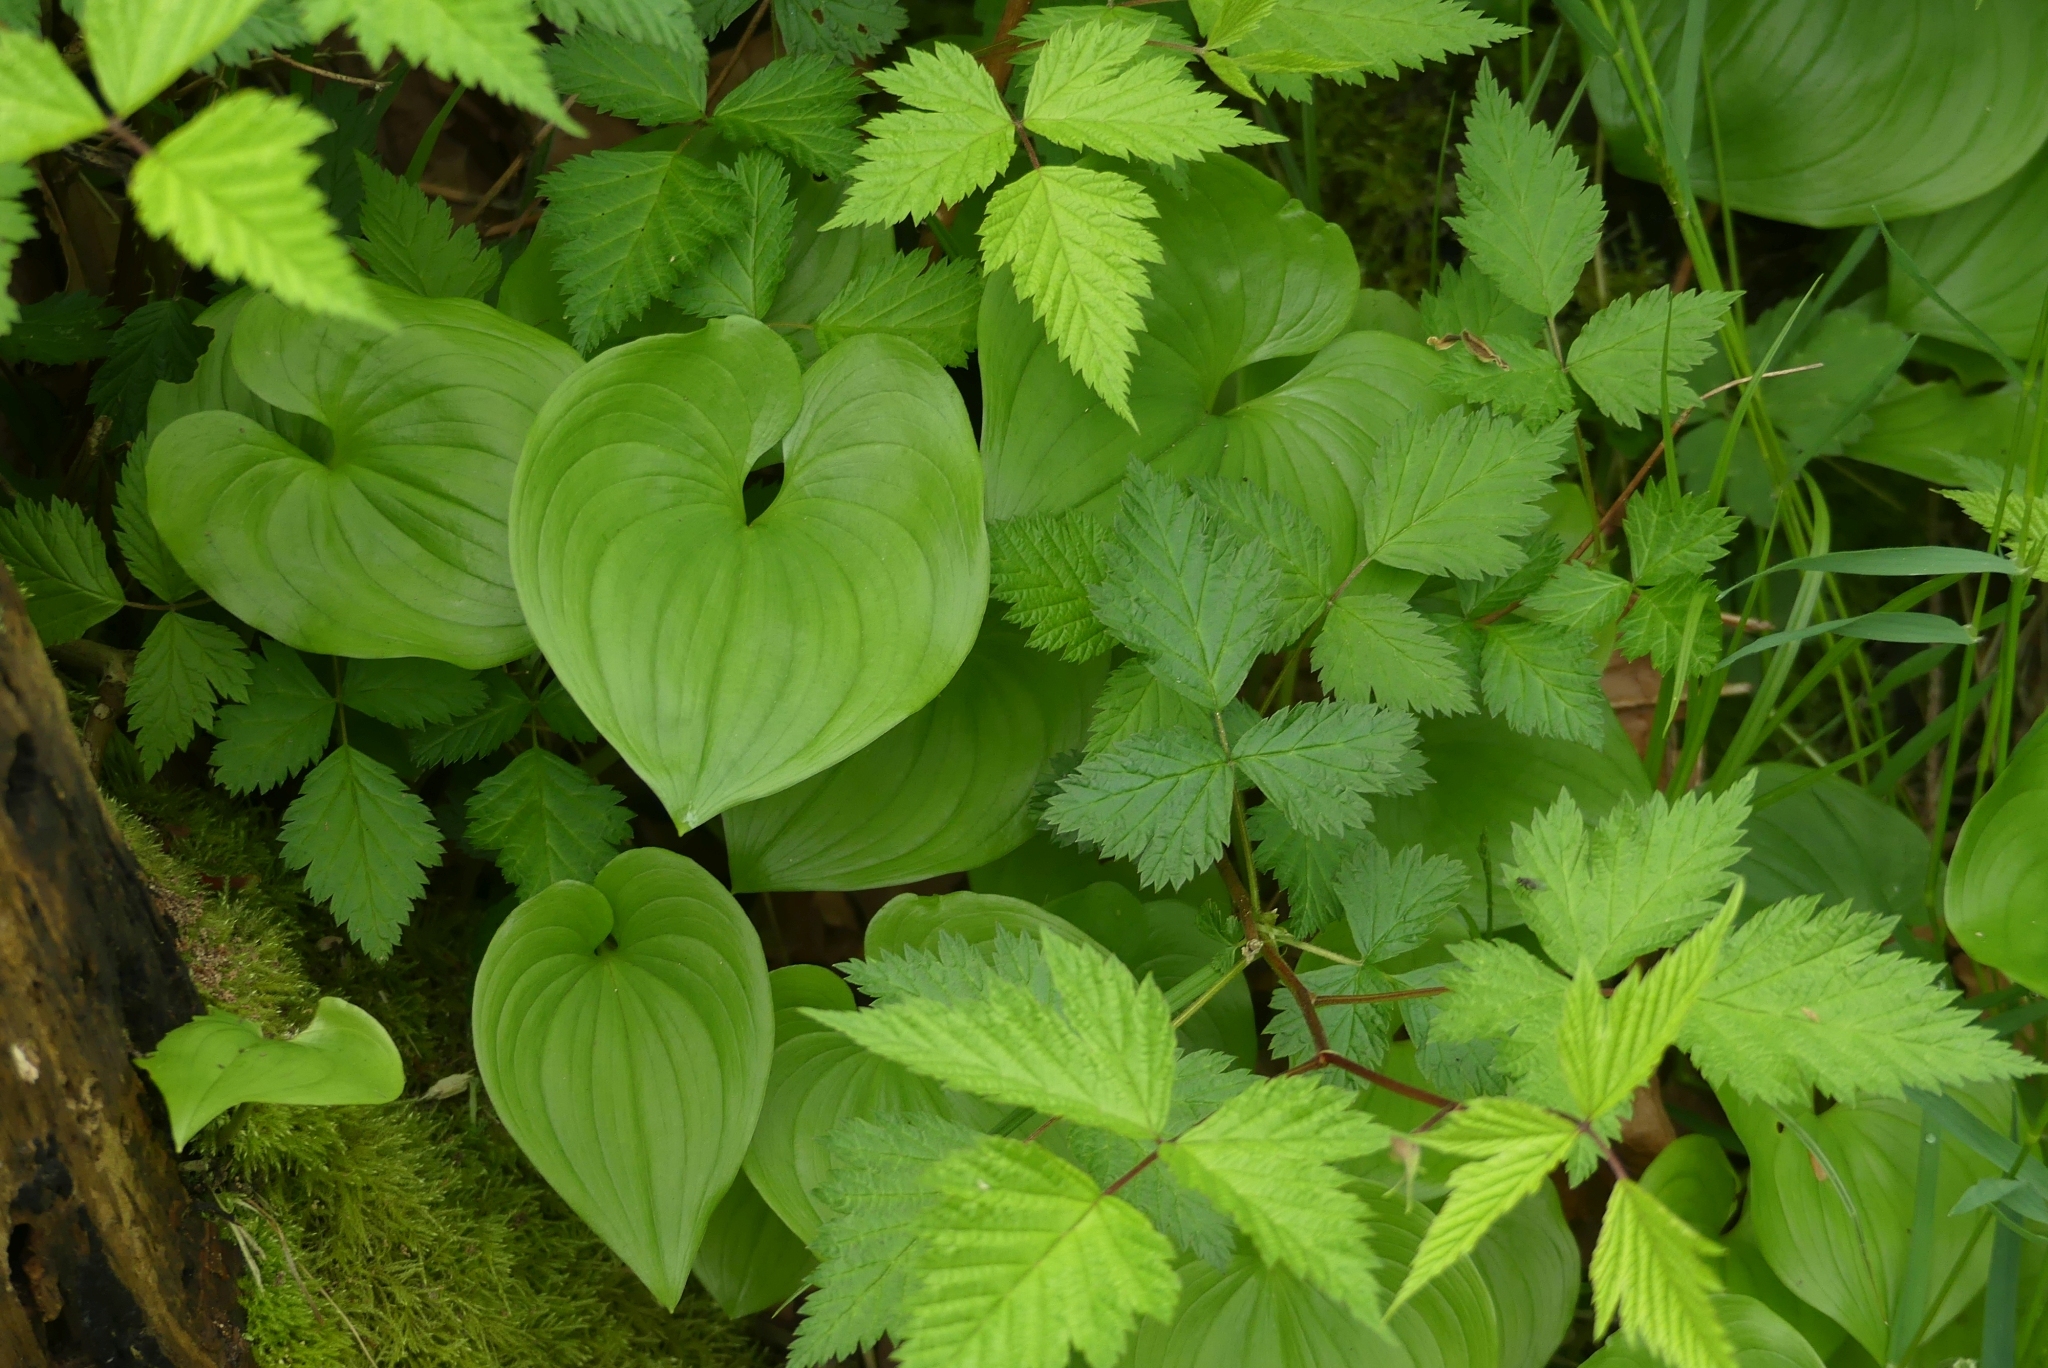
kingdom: Plantae
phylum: Tracheophyta
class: Liliopsida
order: Asparagales
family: Asparagaceae
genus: Maianthemum
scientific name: Maianthemum dilatatum
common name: False lily-of-the-valley
